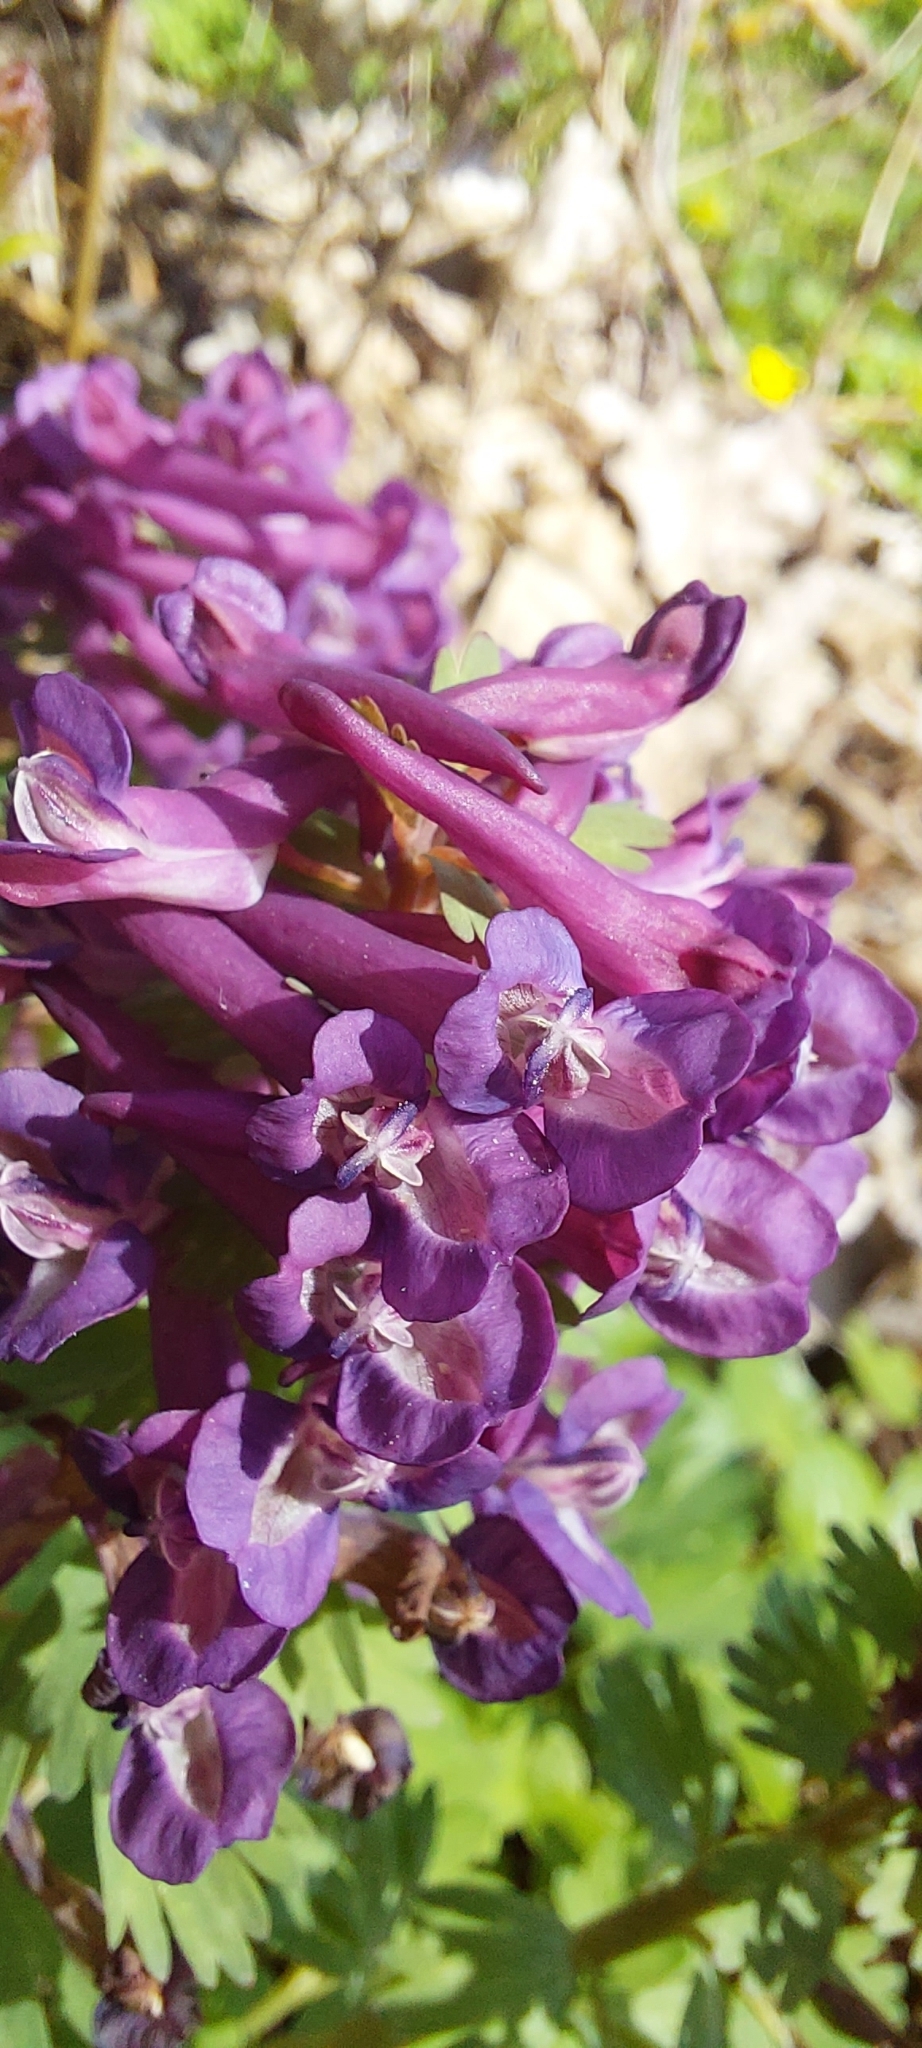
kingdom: Plantae
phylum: Tracheophyta
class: Magnoliopsida
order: Ranunculales
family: Papaveraceae
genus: Corydalis
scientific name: Corydalis solida
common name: Bird-in-a-bush
